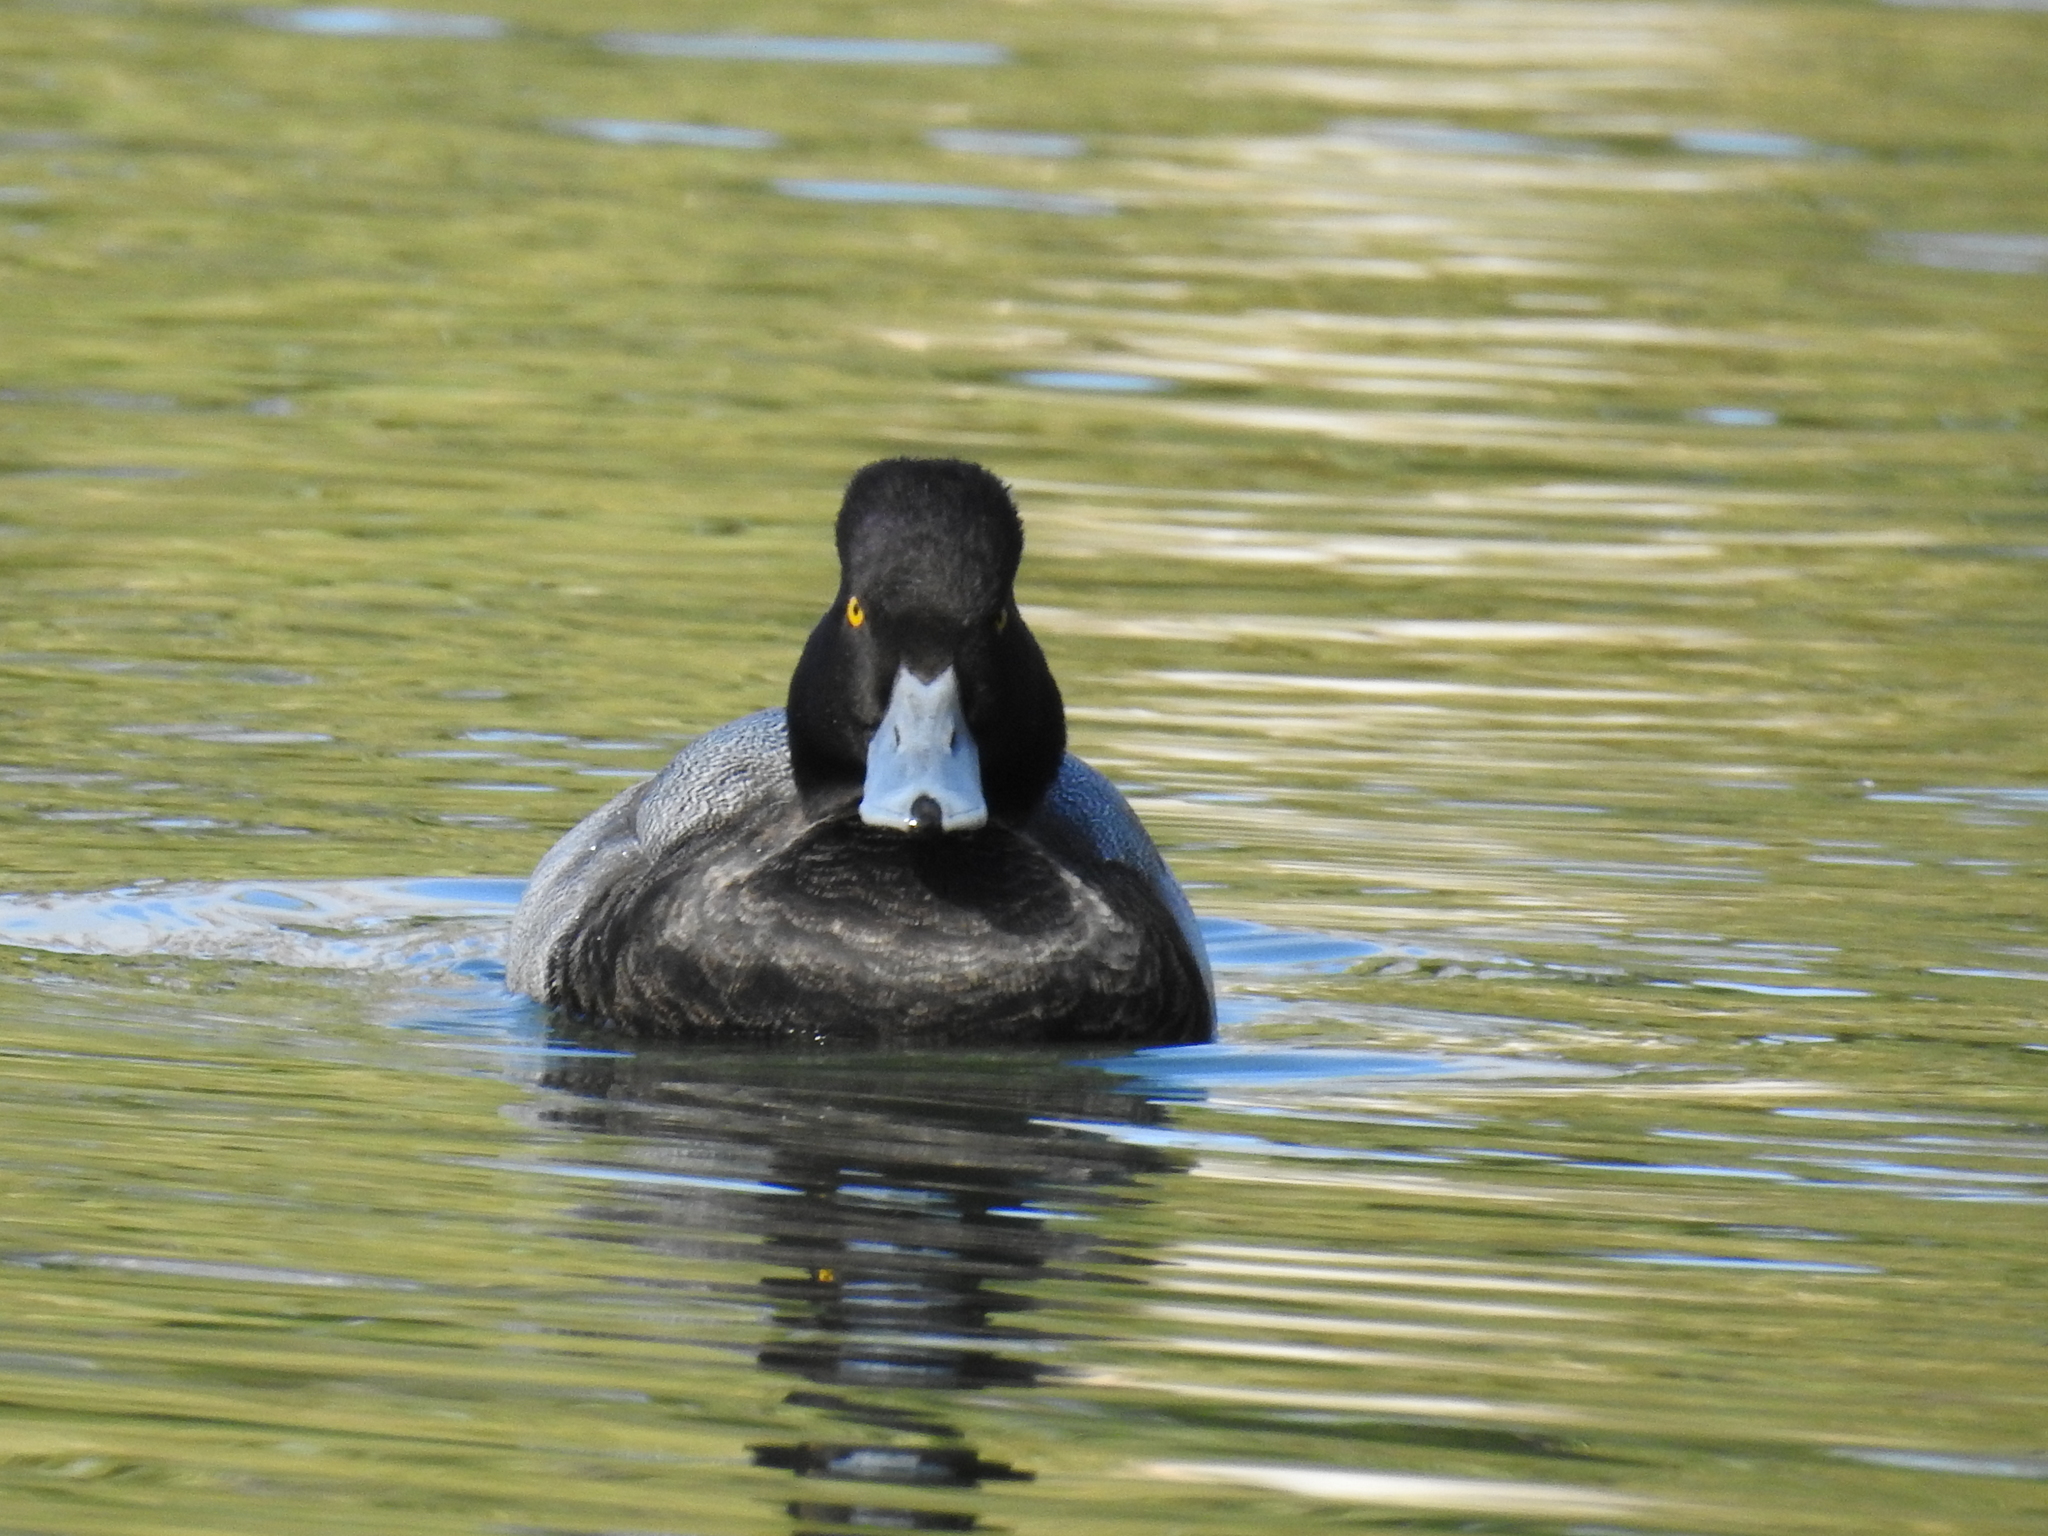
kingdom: Animalia
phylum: Chordata
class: Aves
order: Anseriformes
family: Anatidae
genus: Aythya
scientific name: Aythya affinis
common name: Lesser scaup
